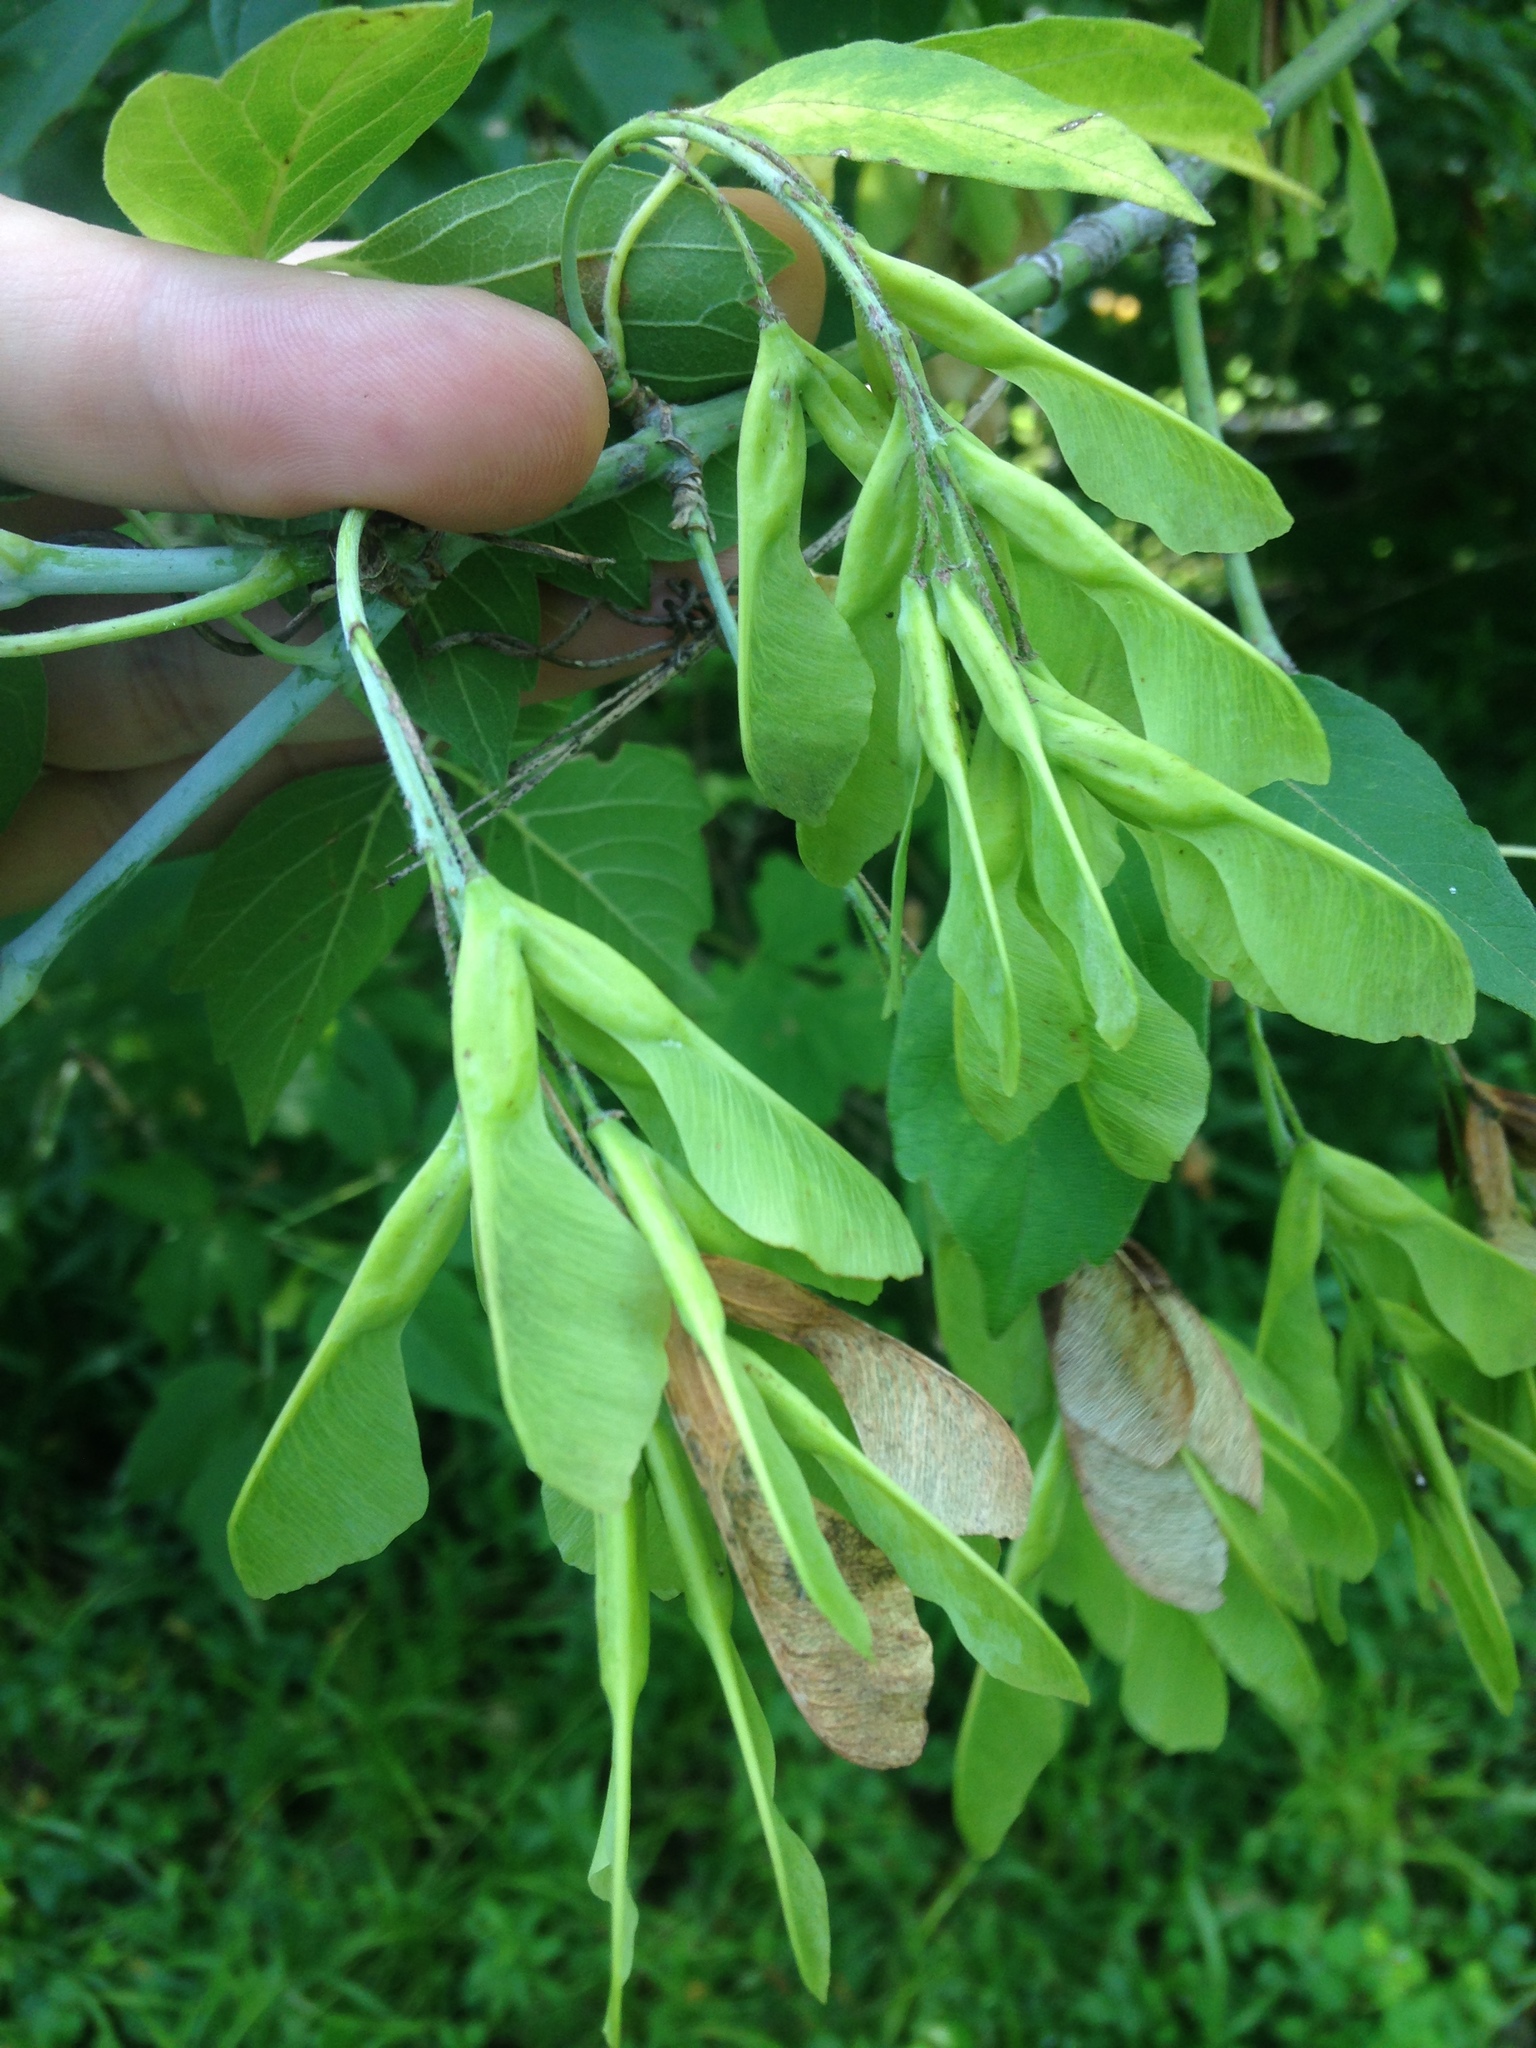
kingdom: Plantae
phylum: Tracheophyta
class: Magnoliopsida
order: Sapindales
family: Sapindaceae
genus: Acer
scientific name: Acer negundo
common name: Ashleaf maple
